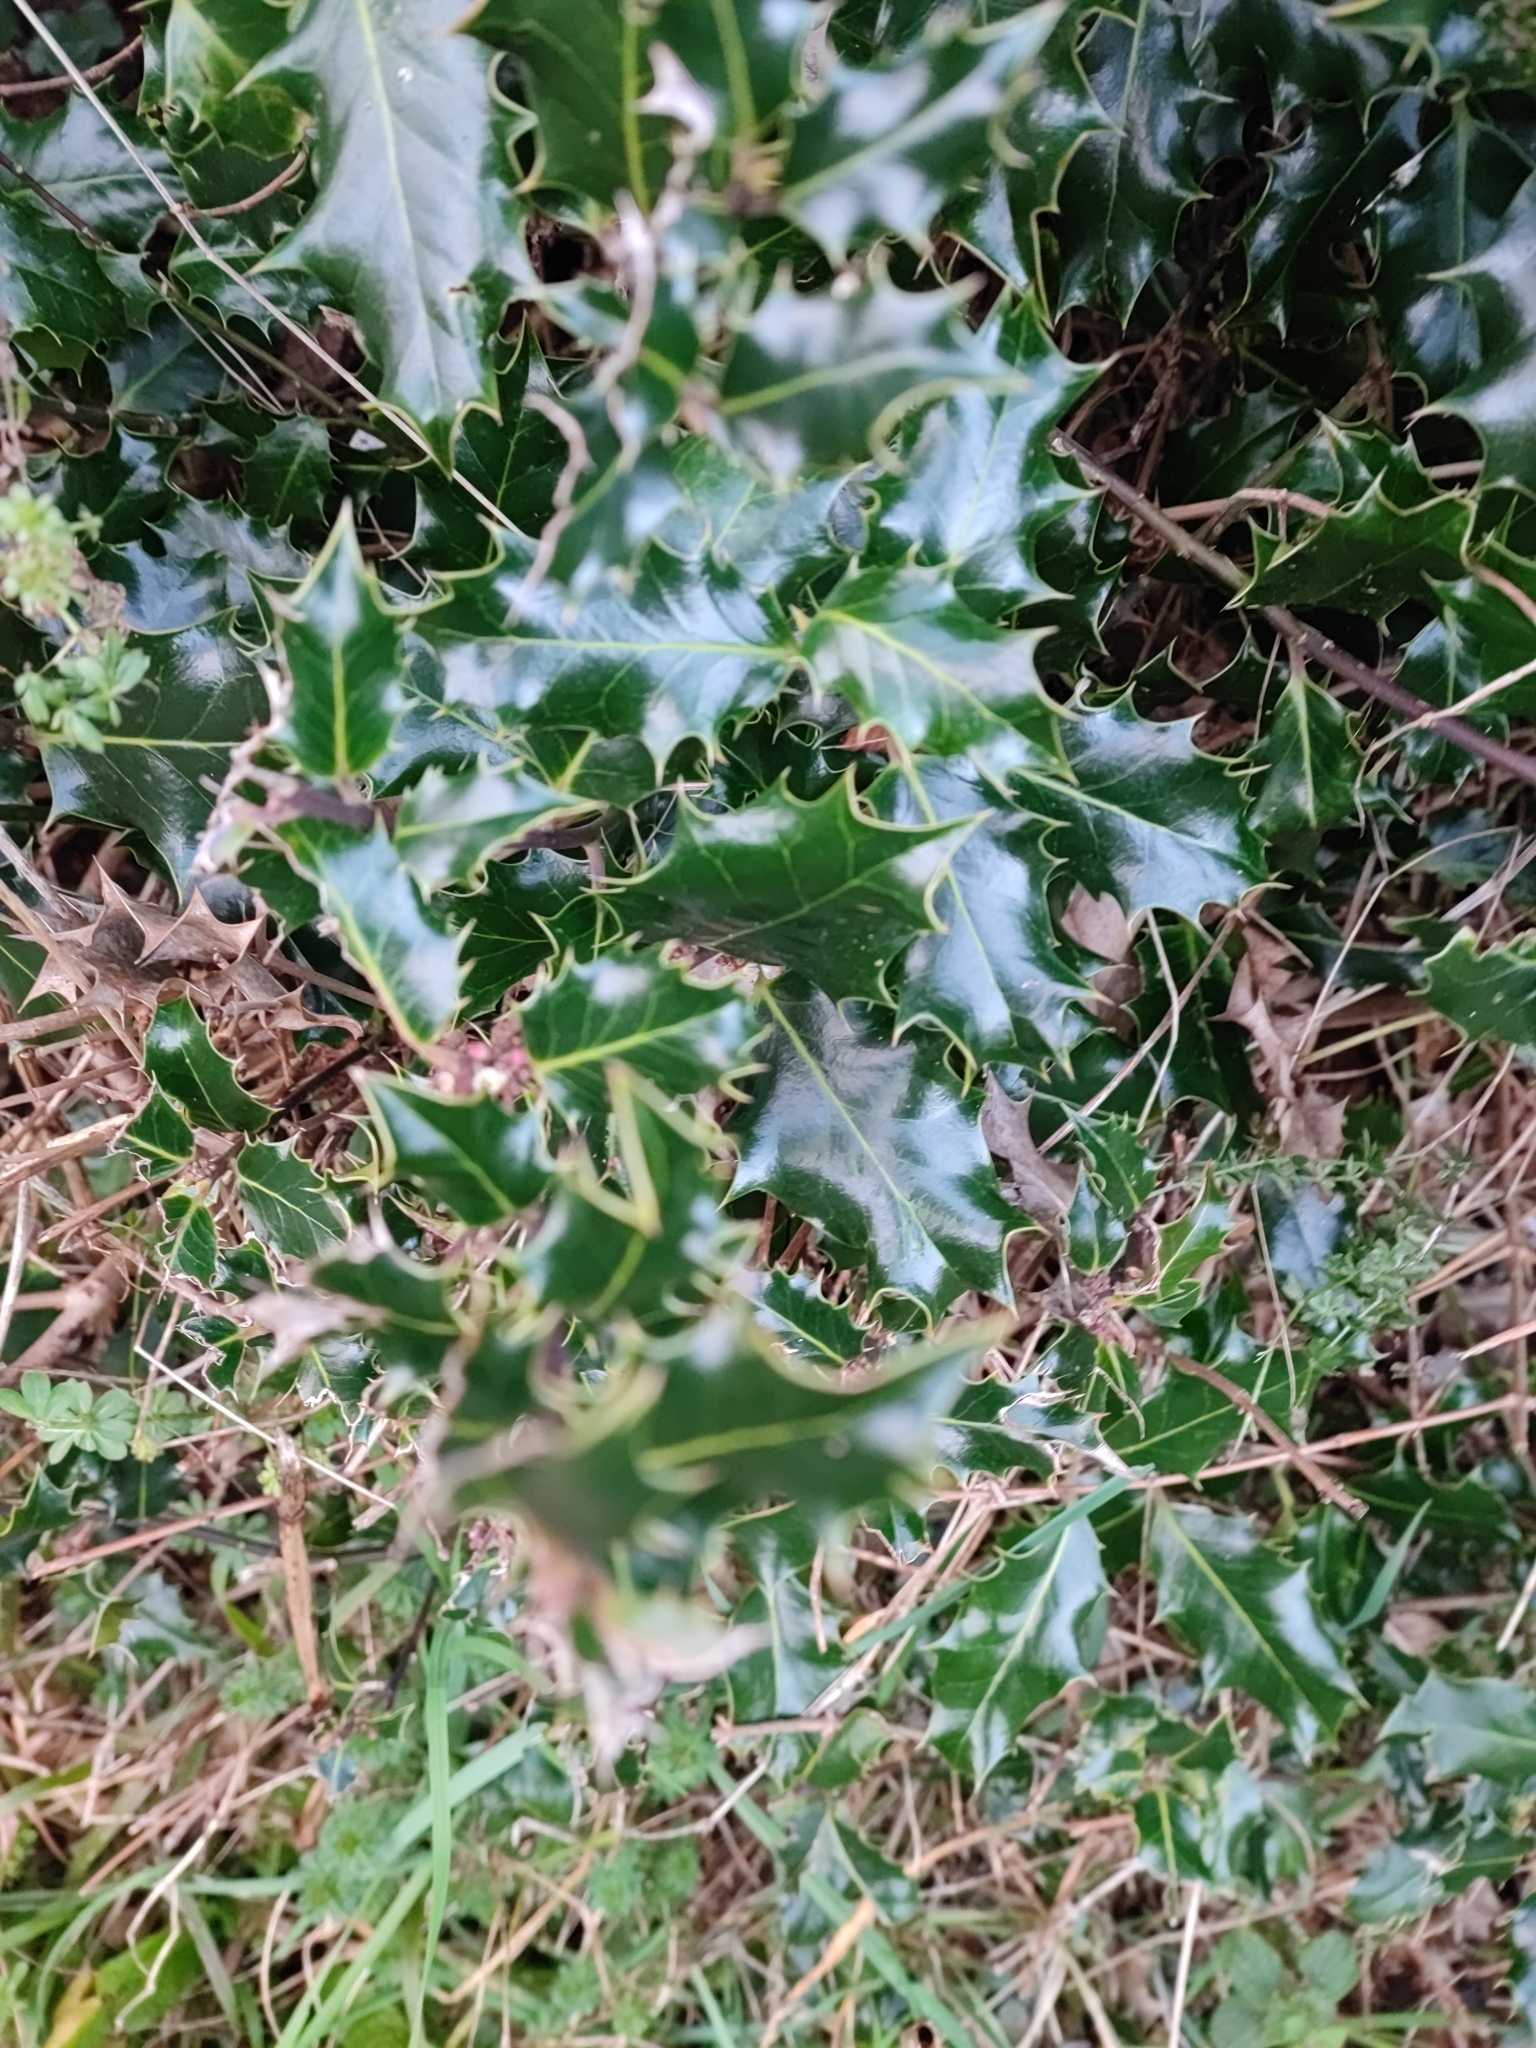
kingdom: Plantae
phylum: Tracheophyta
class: Magnoliopsida
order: Aquifoliales
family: Aquifoliaceae
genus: Ilex
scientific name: Ilex aquifolium
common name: English holly
